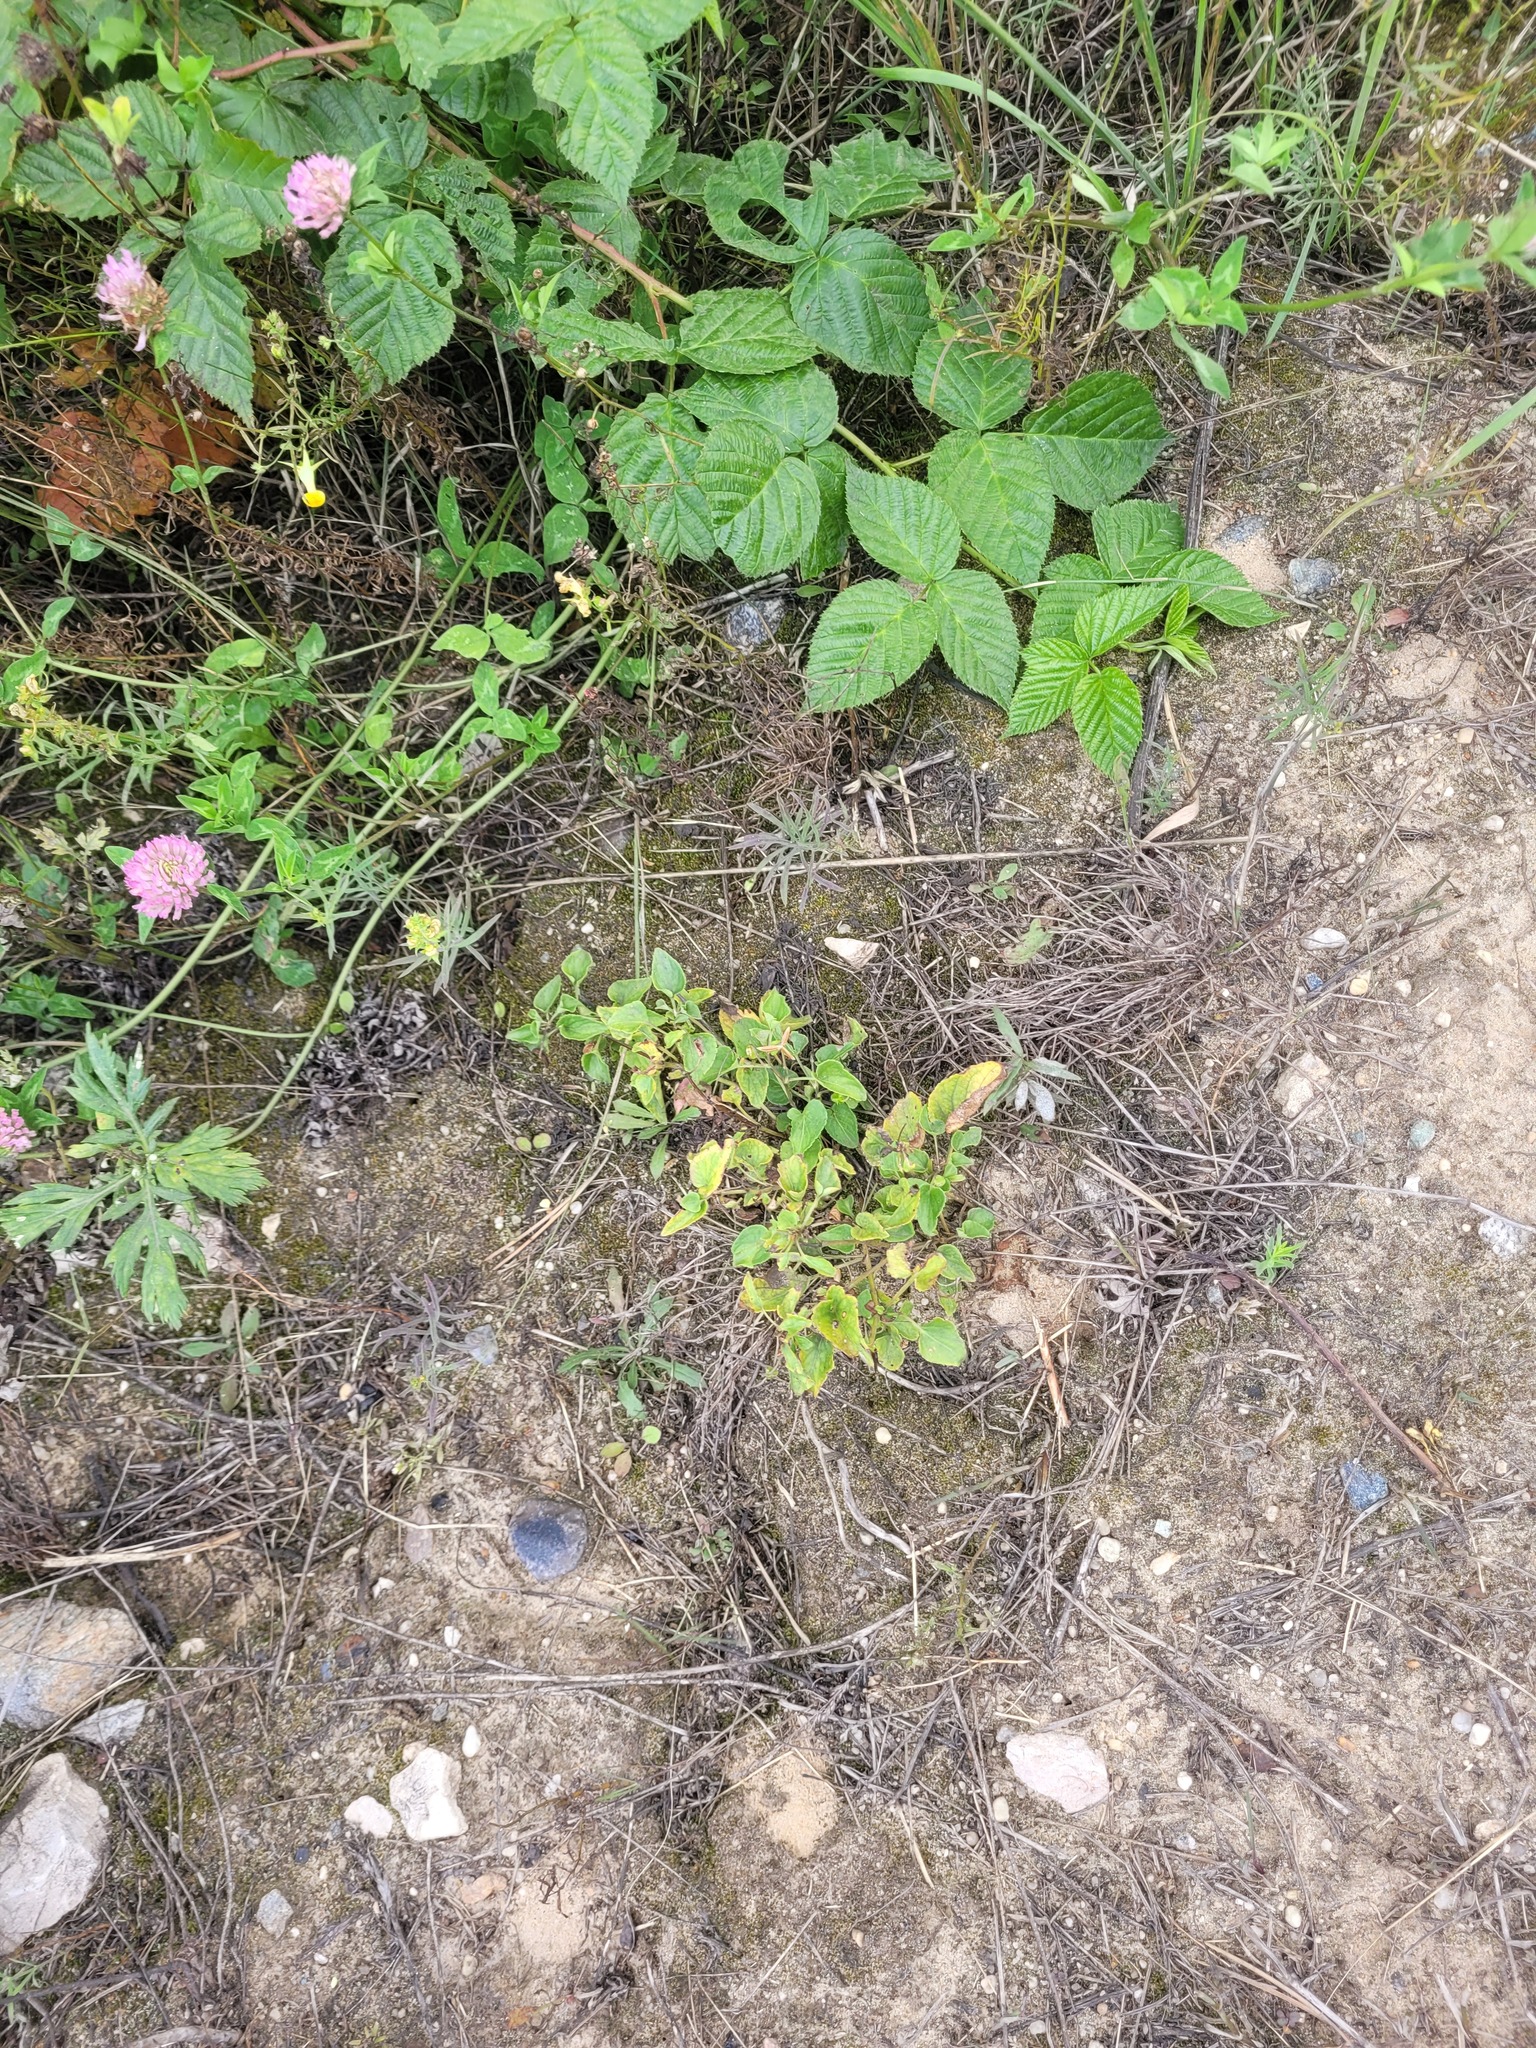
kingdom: Plantae
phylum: Tracheophyta
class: Magnoliopsida
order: Malpighiales
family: Violaceae
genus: Viola
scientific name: Viola canina
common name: Heath dog-violet
